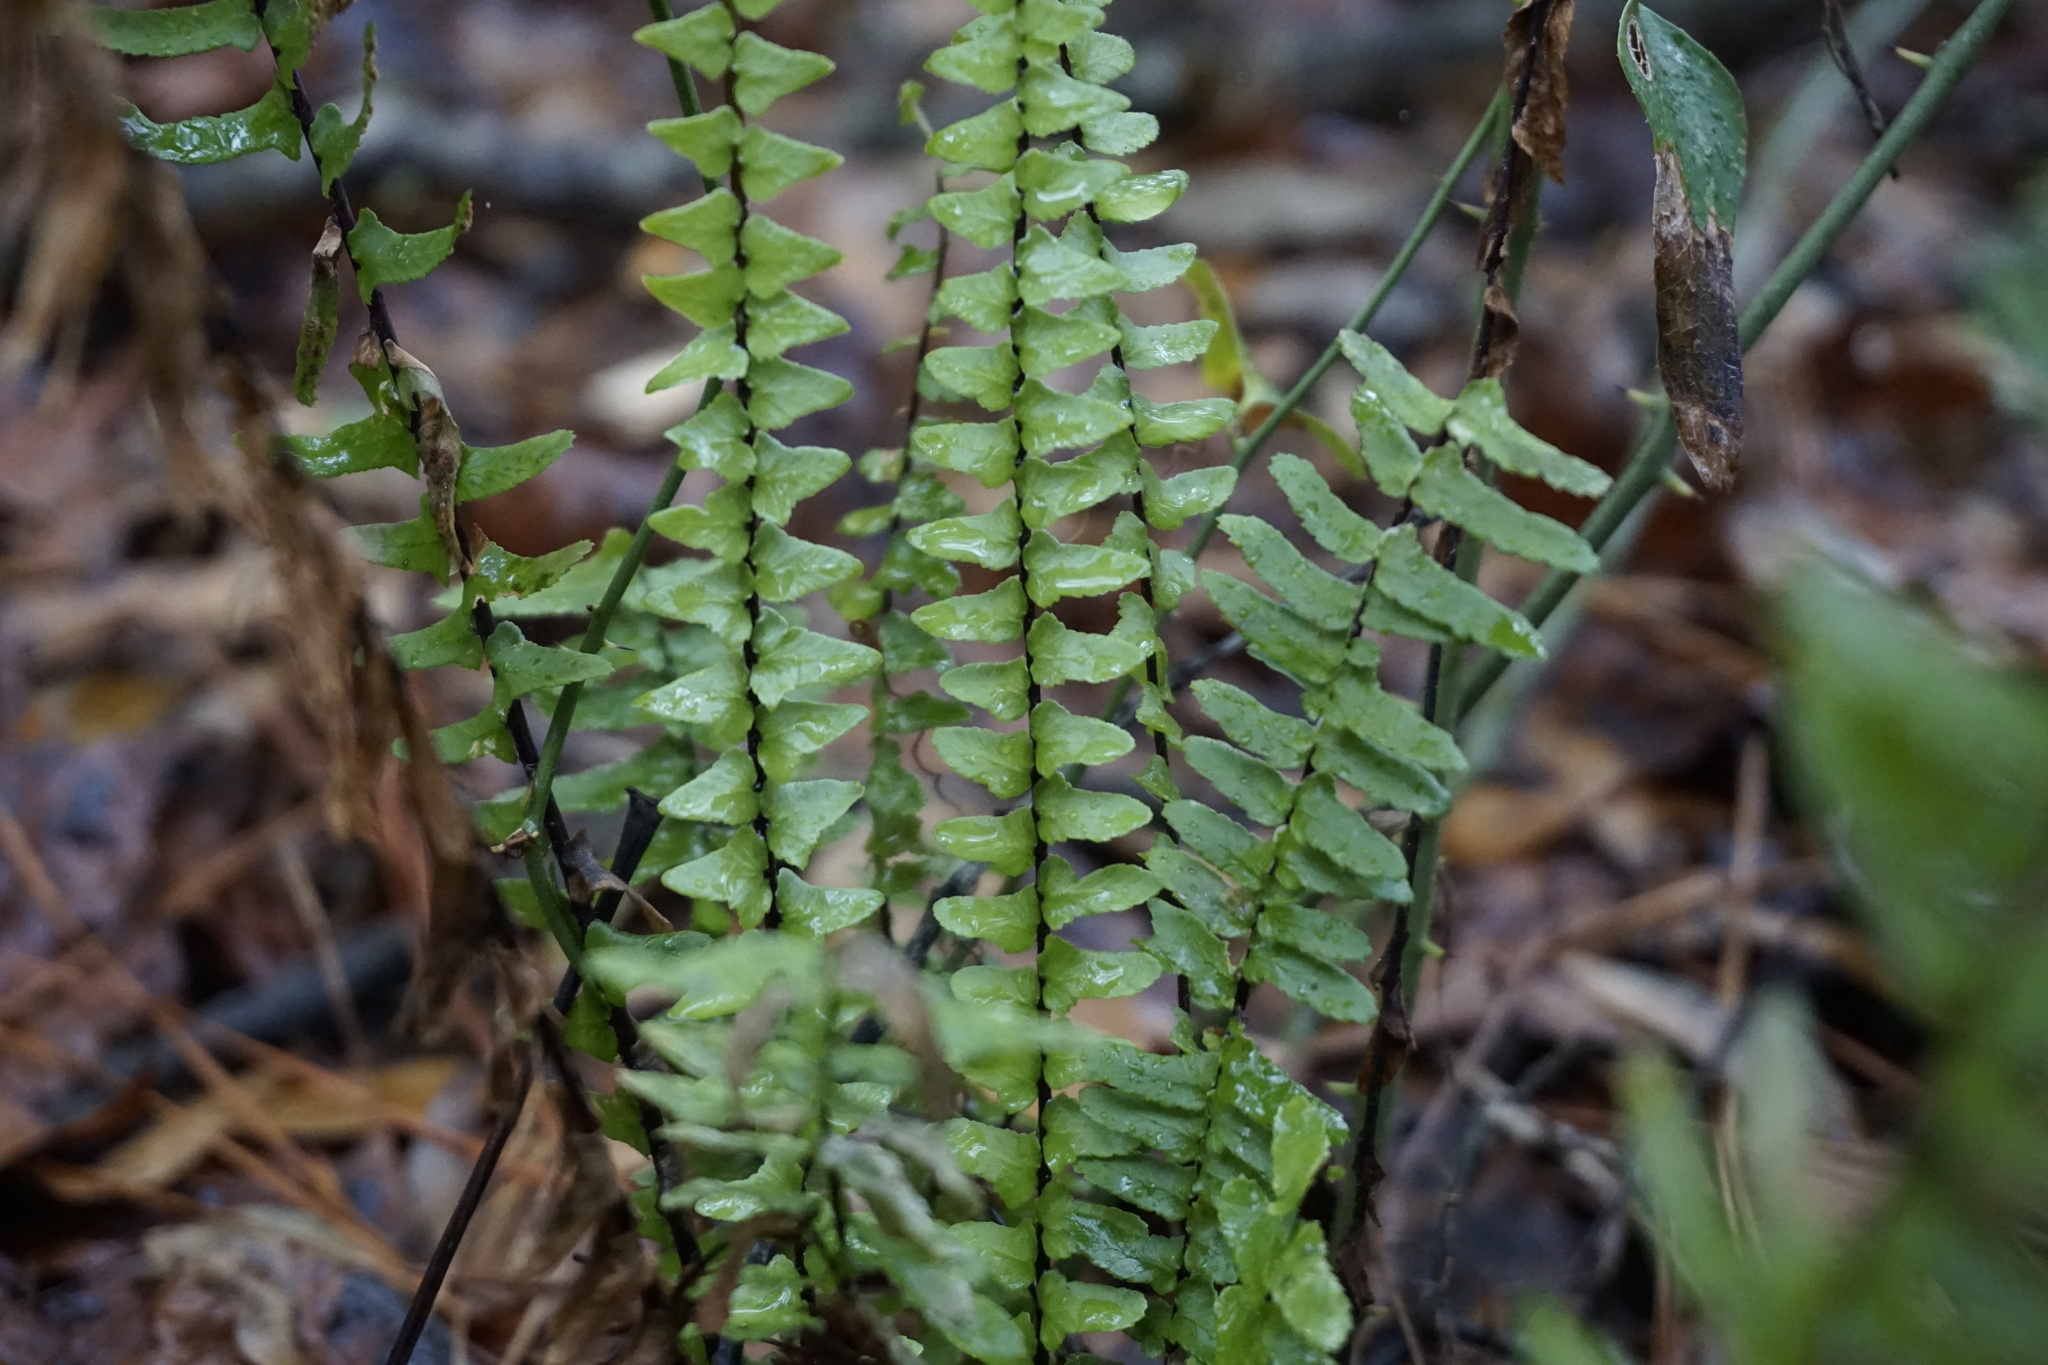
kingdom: Plantae
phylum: Tracheophyta
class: Polypodiopsida
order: Polypodiales
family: Aspleniaceae
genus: Asplenium
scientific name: Asplenium platyneuron
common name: Ebony spleenwort
